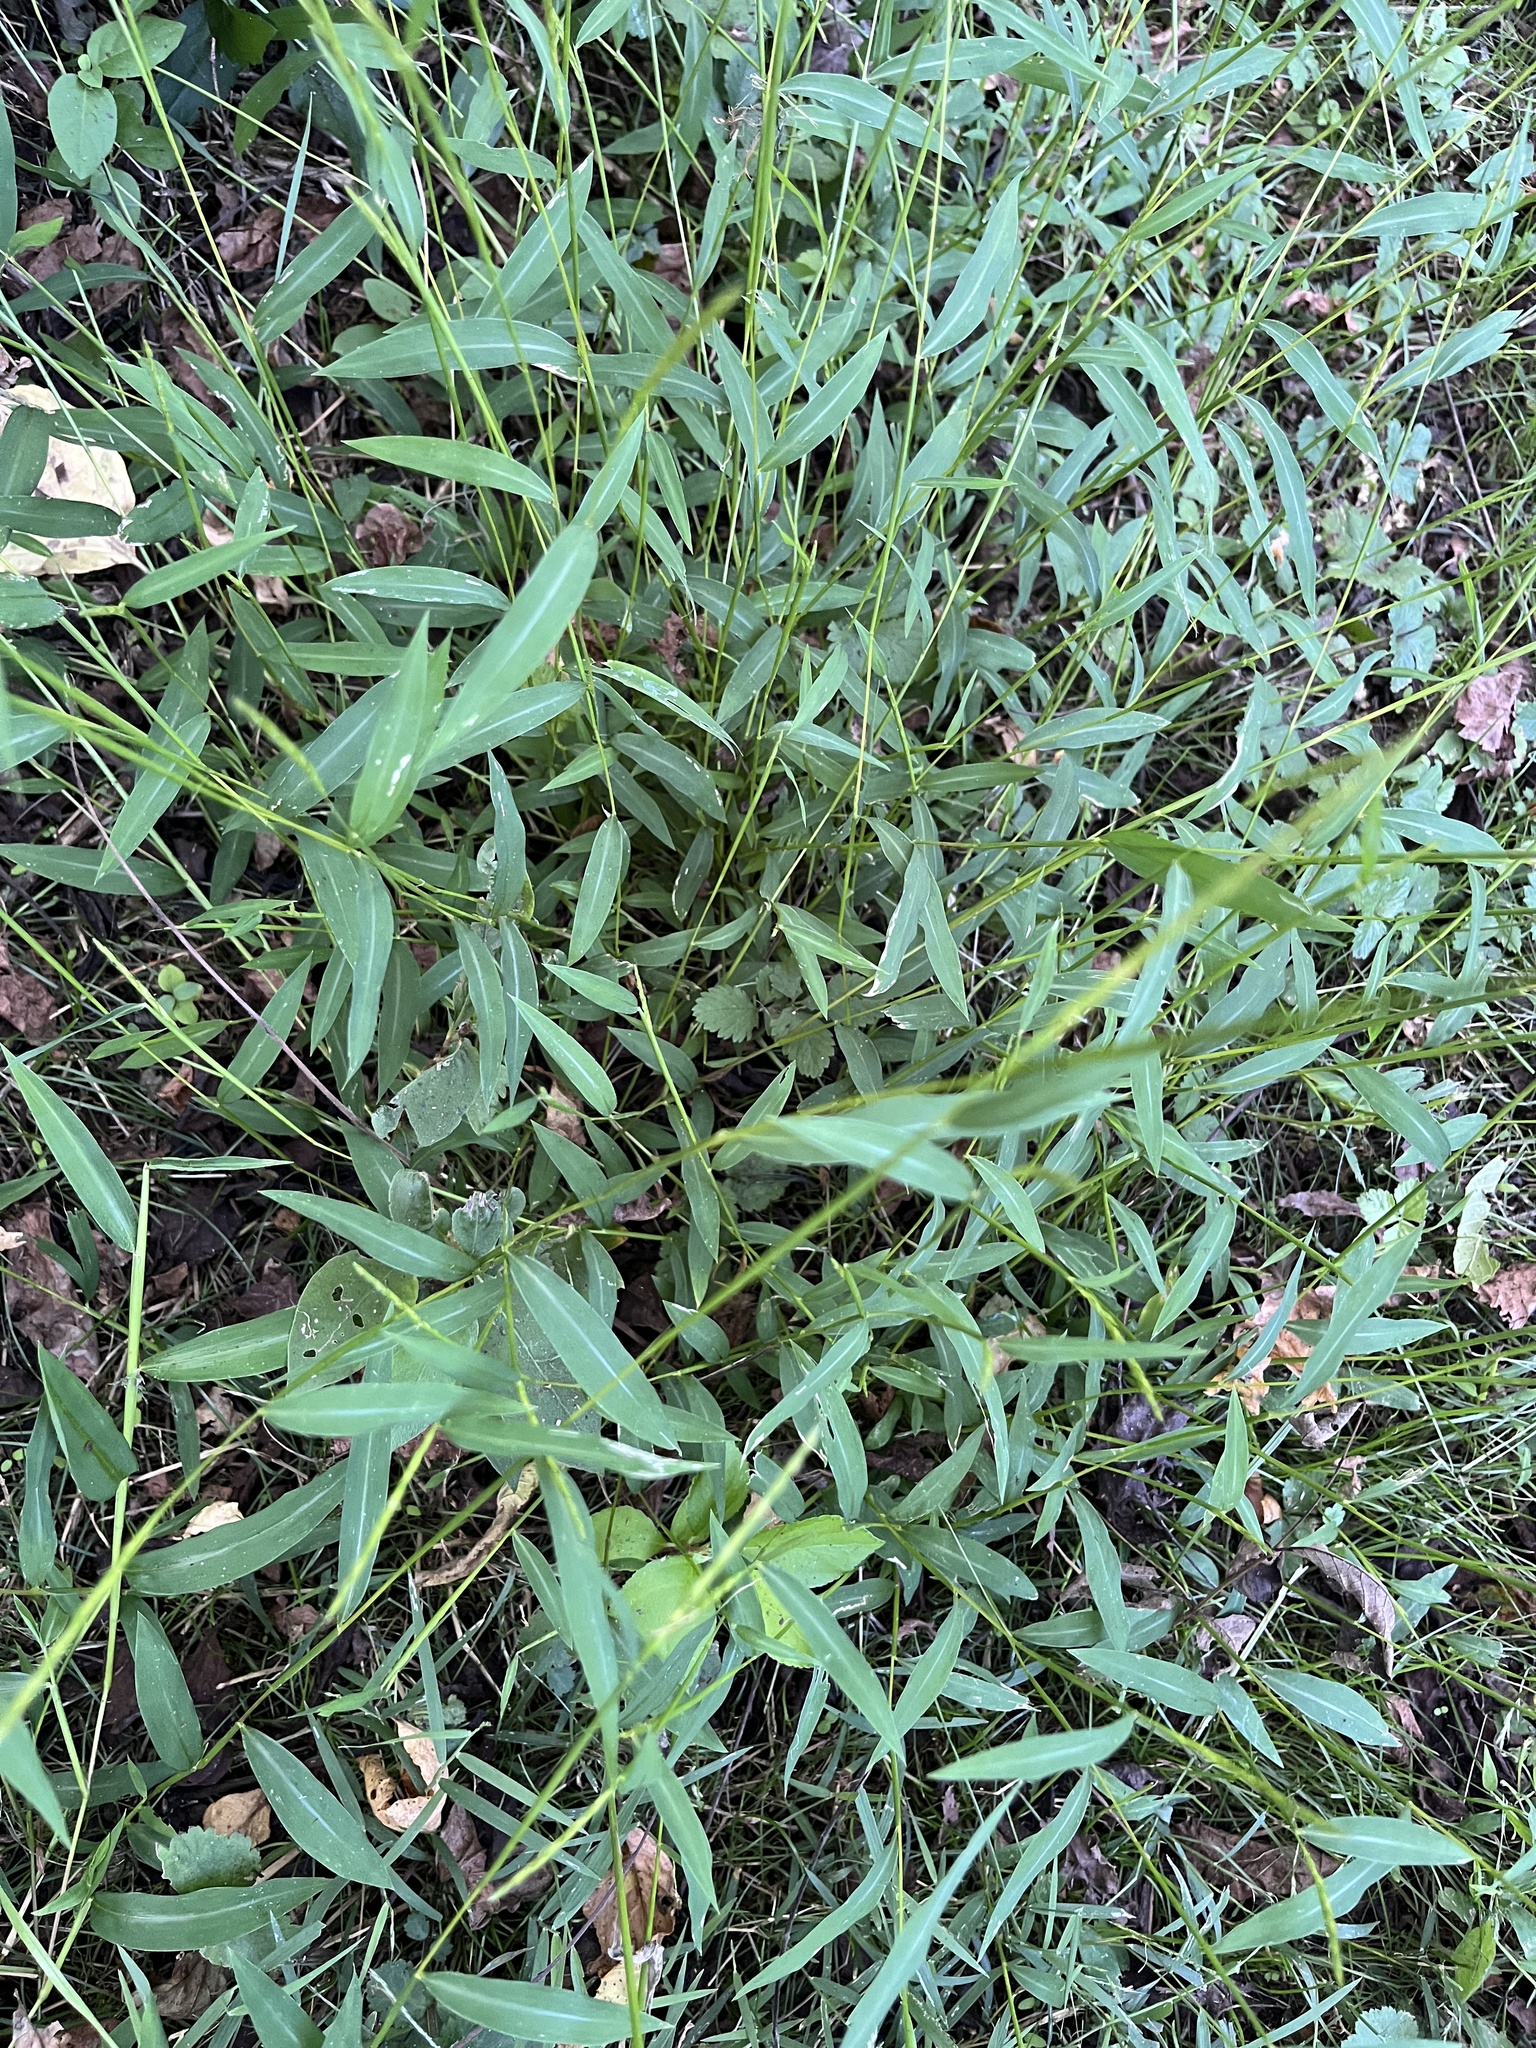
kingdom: Plantae
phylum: Tracheophyta
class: Liliopsida
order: Poales
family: Poaceae
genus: Microstegium
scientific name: Microstegium vimineum
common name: Japanese stiltgrass
